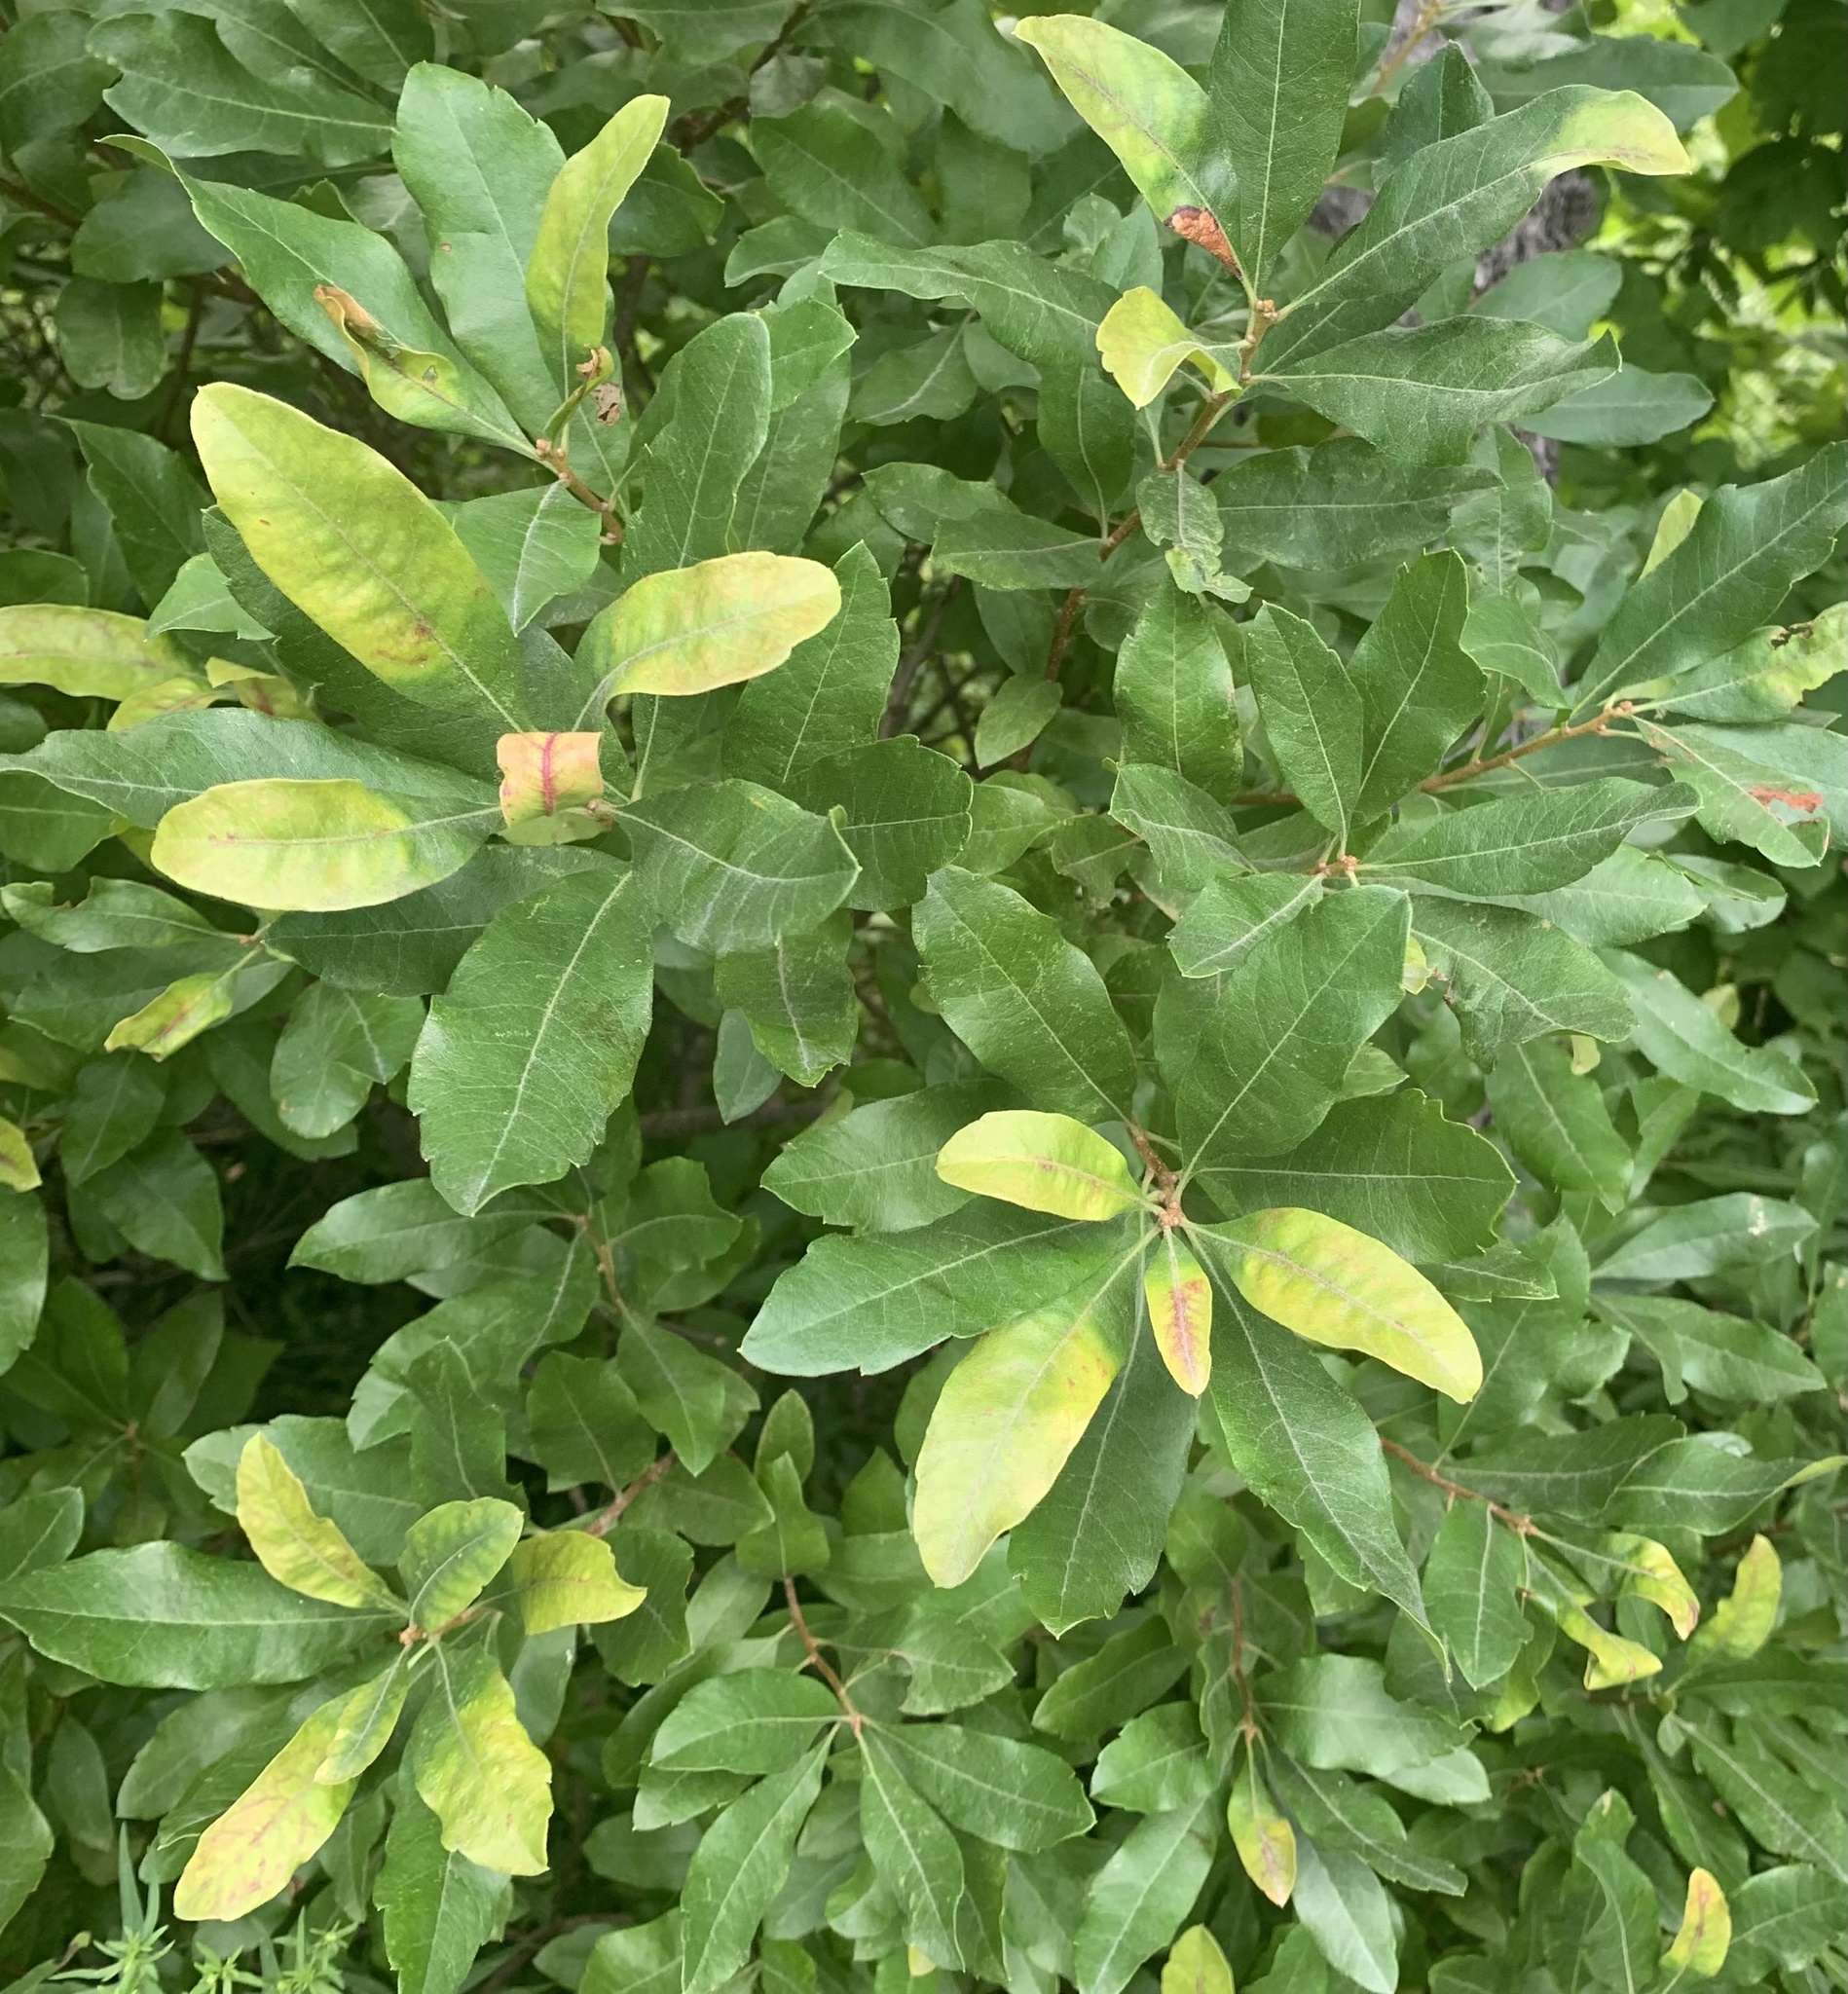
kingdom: Plantae
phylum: Tracheophyta
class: Magnoliopsida
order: Fagales
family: Myricaceae
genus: Morella
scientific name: Morella pensylvanica
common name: Northern bayberry
